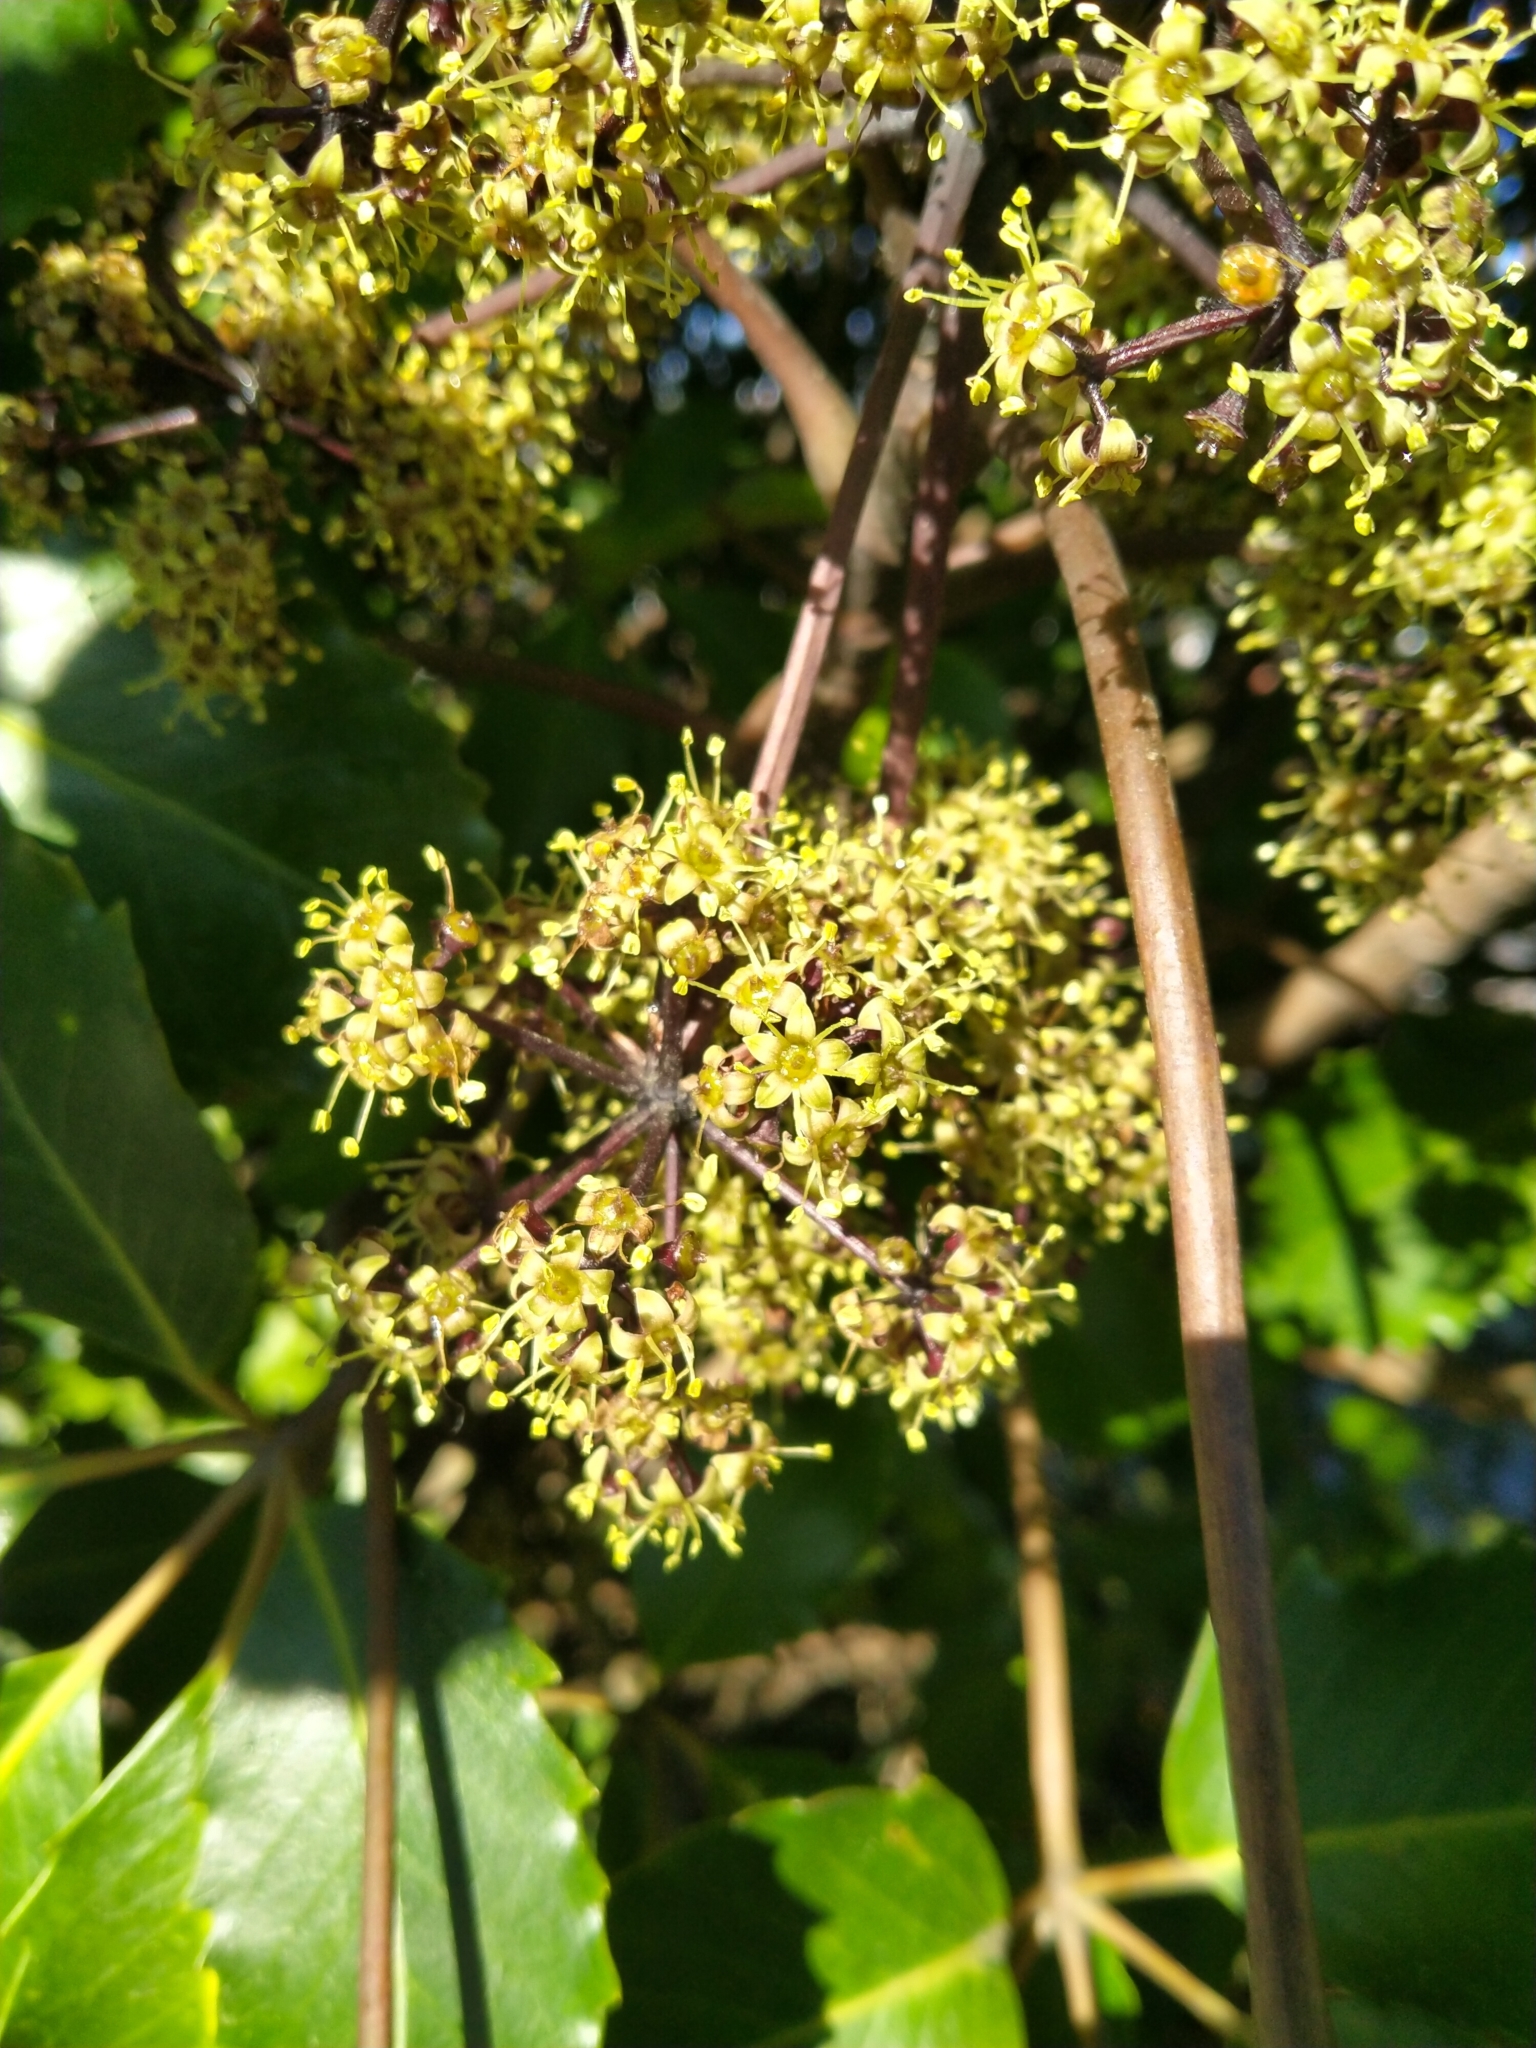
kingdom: Plantae
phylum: Tracheophyta
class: Magnoliopsida
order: Apiales
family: Araliaceae
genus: Neopanax
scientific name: Neopanax arboreus
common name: Five-fingers
